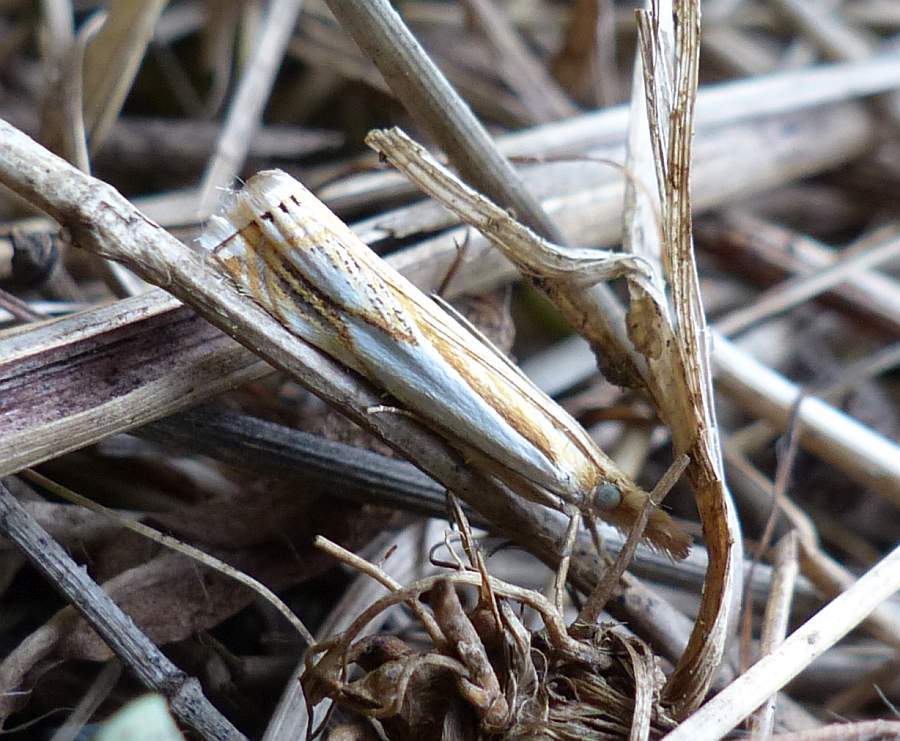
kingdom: Animalia
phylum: Arthropoda
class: Insecta
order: Lepidoptera
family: Crambidae
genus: Crambus
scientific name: Crambus saltuellus
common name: Pasture grass-veneer
